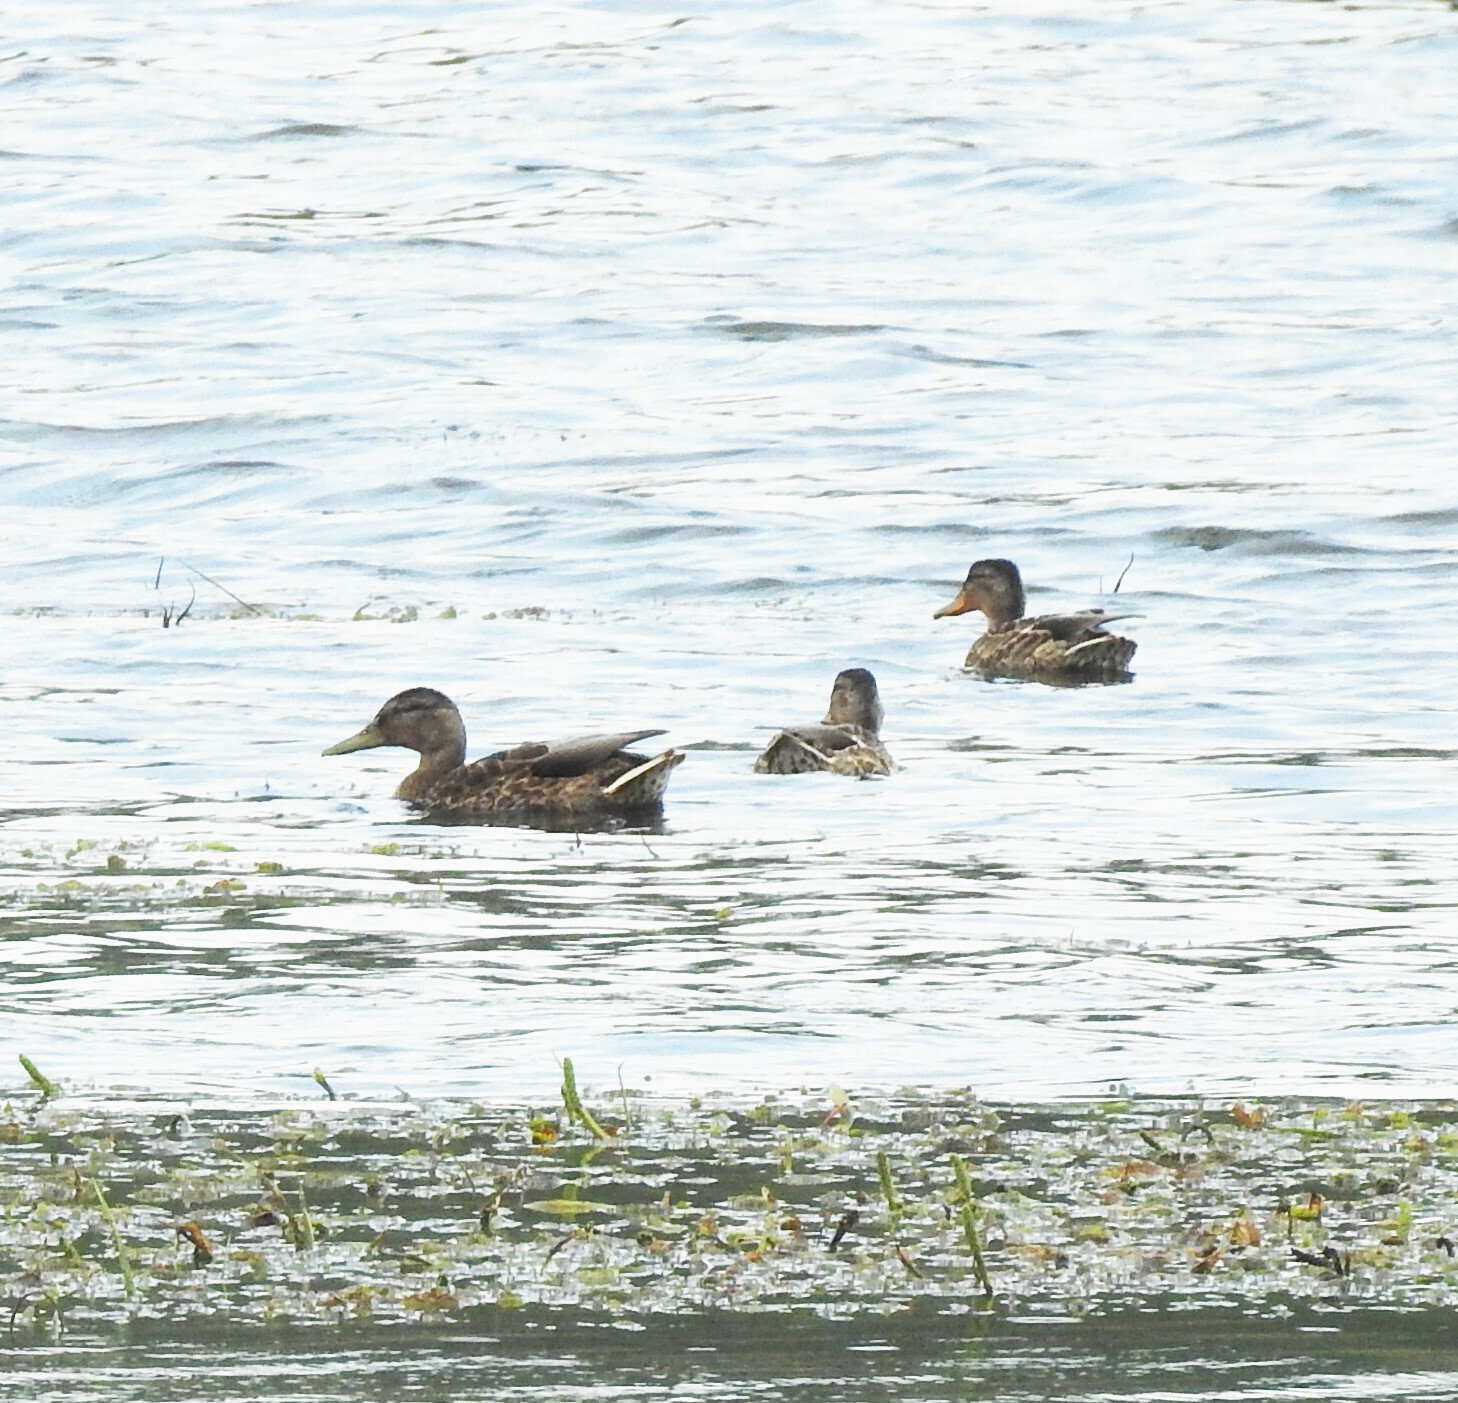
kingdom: Animalia
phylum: Chordata
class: Aves
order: Anseriformes
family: Anatidae
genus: Anas
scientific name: Anas platyrhynchos
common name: Mallard
